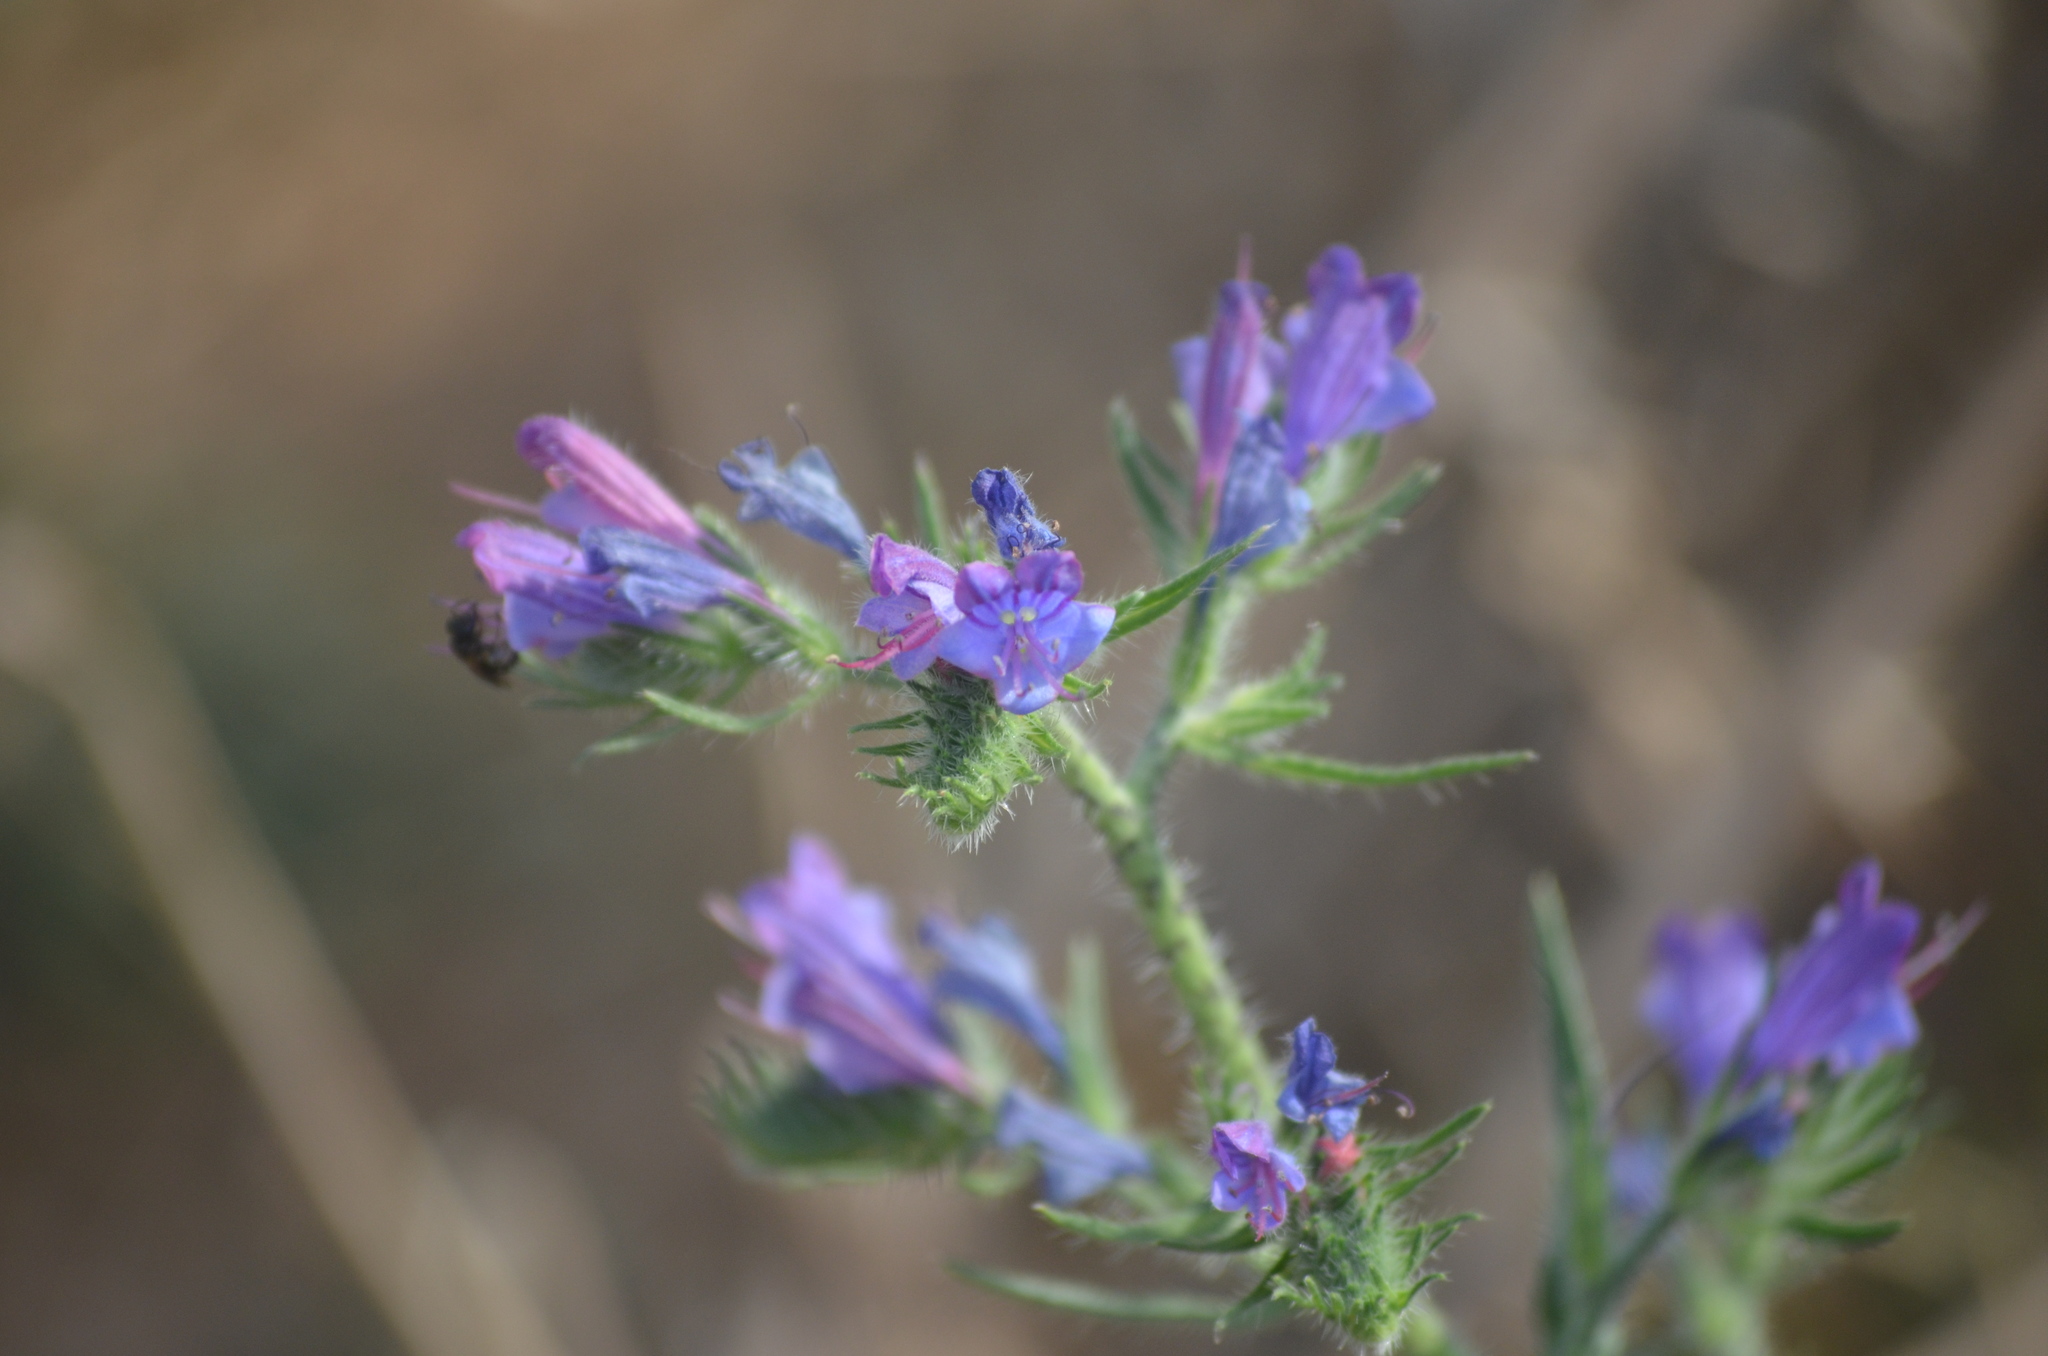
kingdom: Plantae
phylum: Tracheophyta
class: Magnoliopsida
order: Boraginales
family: Boraginaceae
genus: Echium
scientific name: Echium vulgare
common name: Common viper's bugloss
